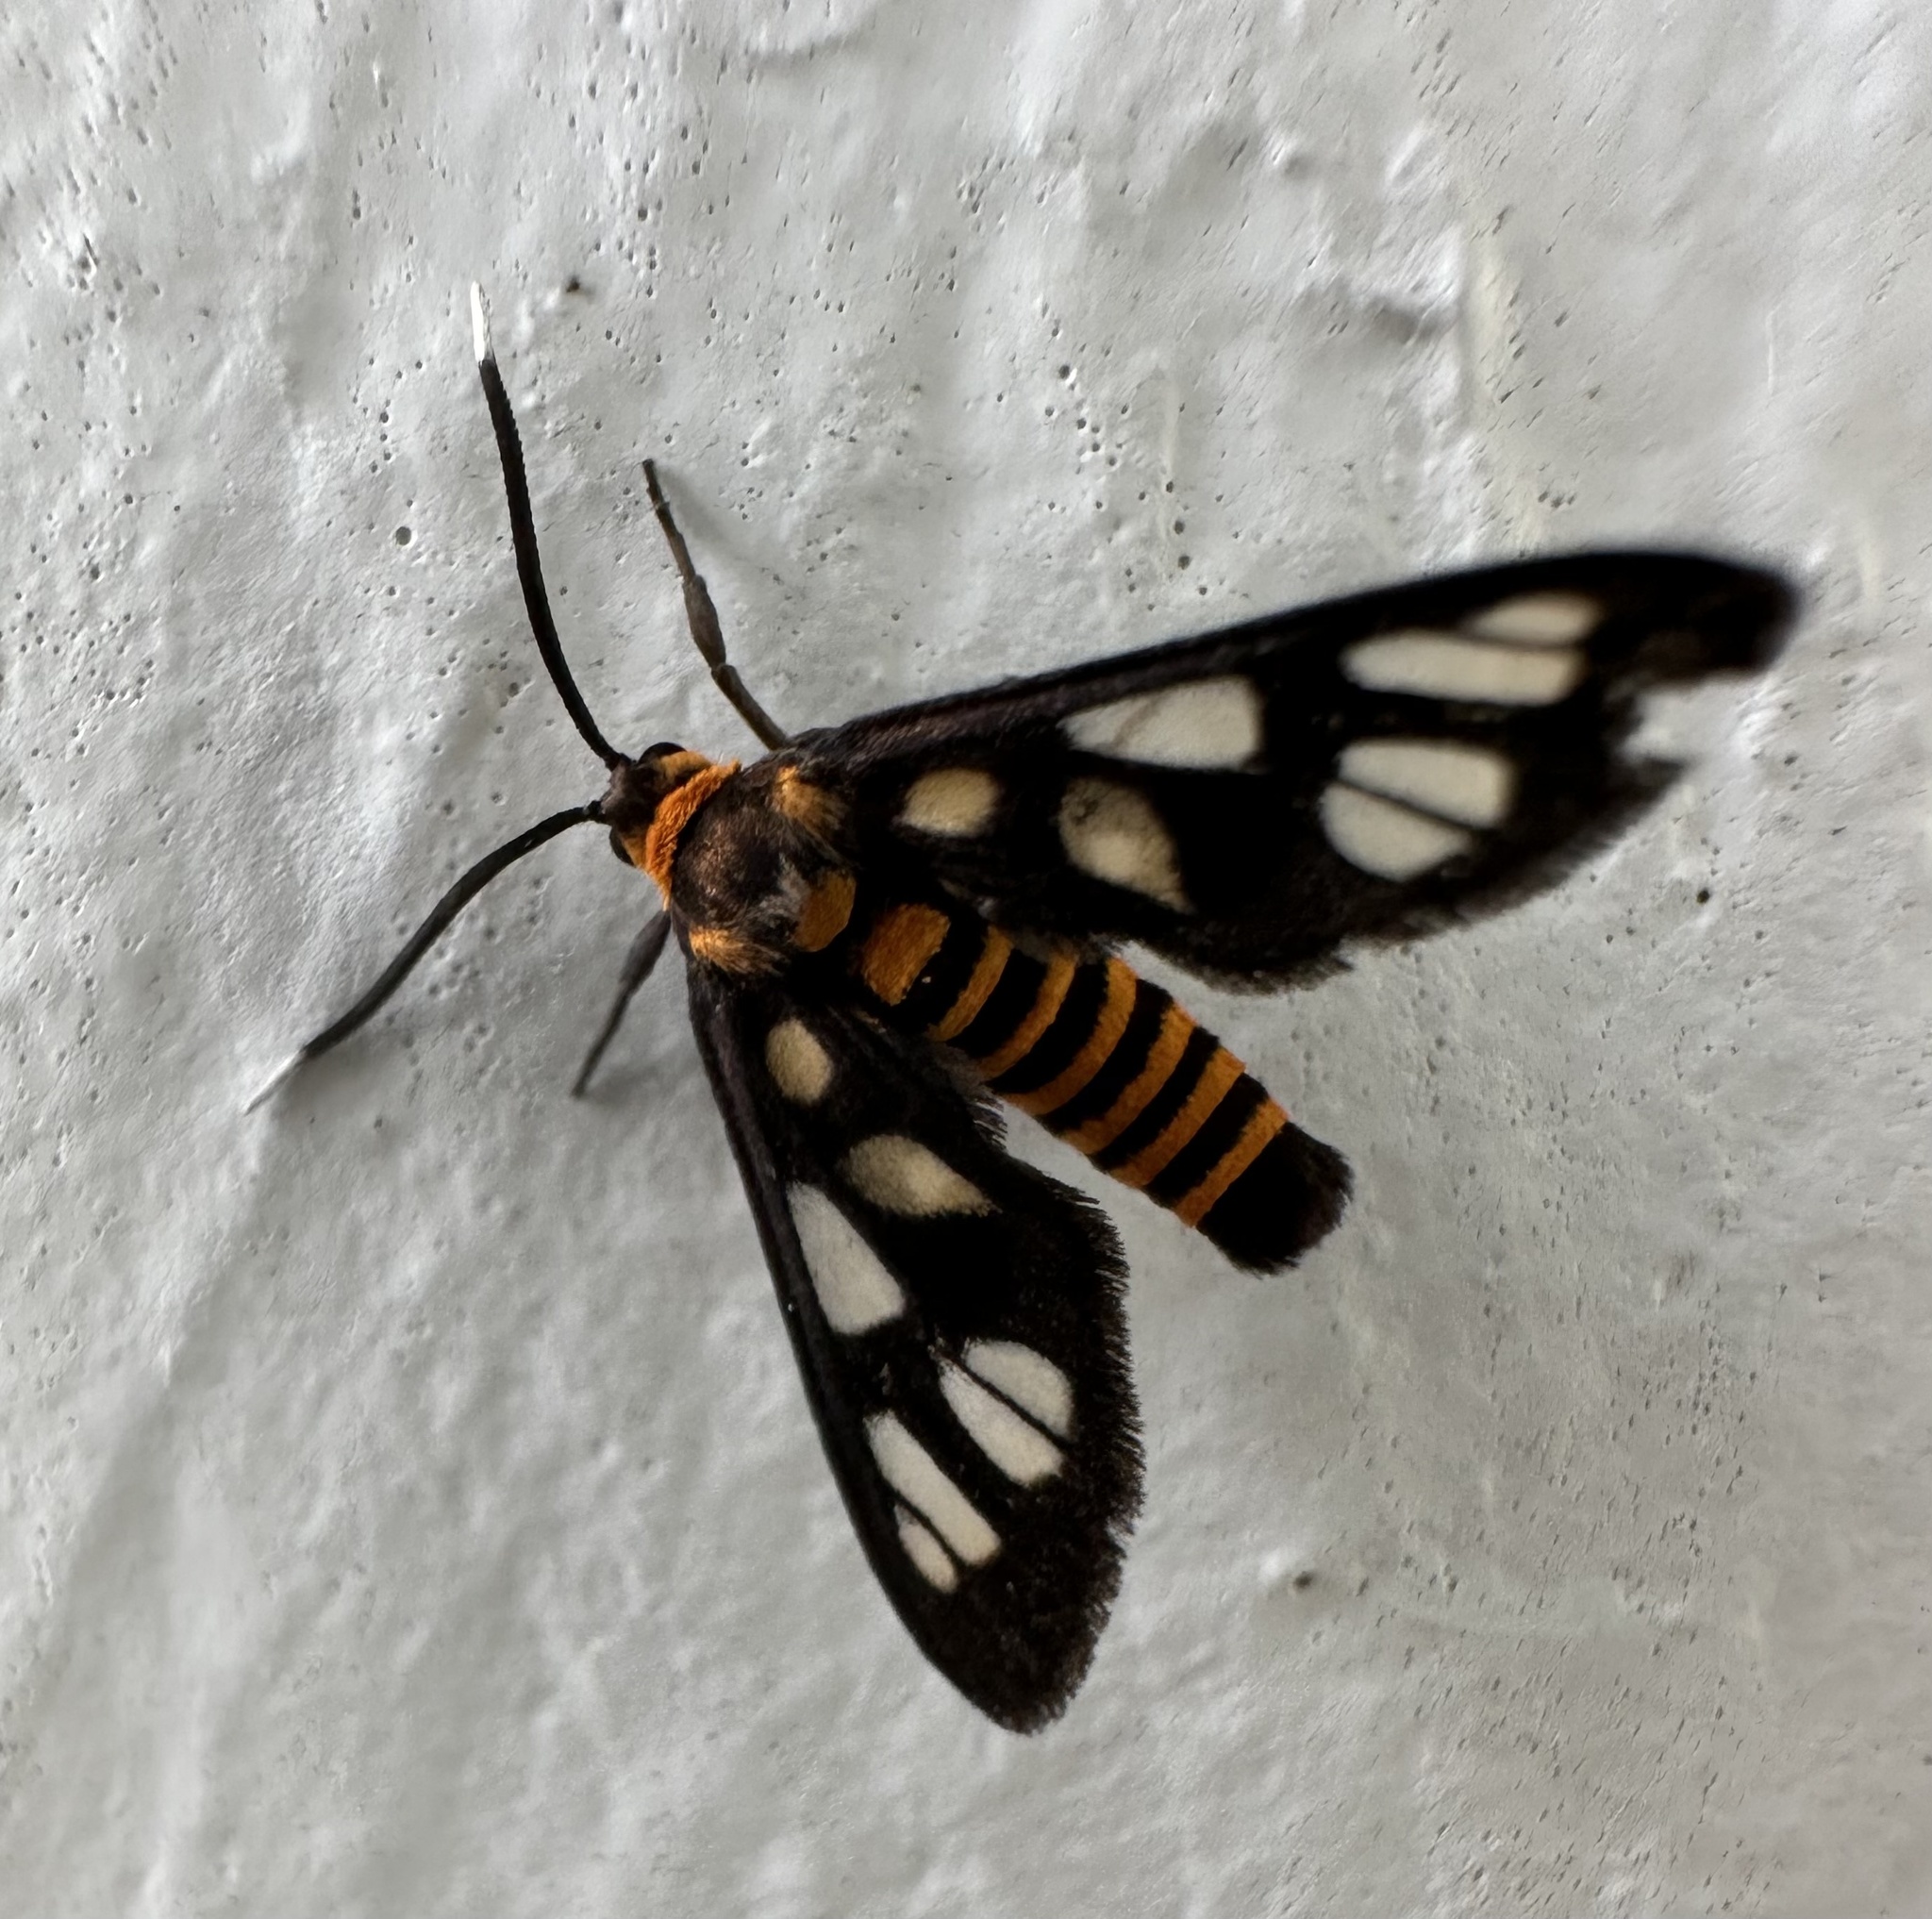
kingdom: Animalia
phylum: Arthropoda
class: Insecta
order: Lepidoptera
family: Erebidae
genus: Amata
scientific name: Amata huebneri
